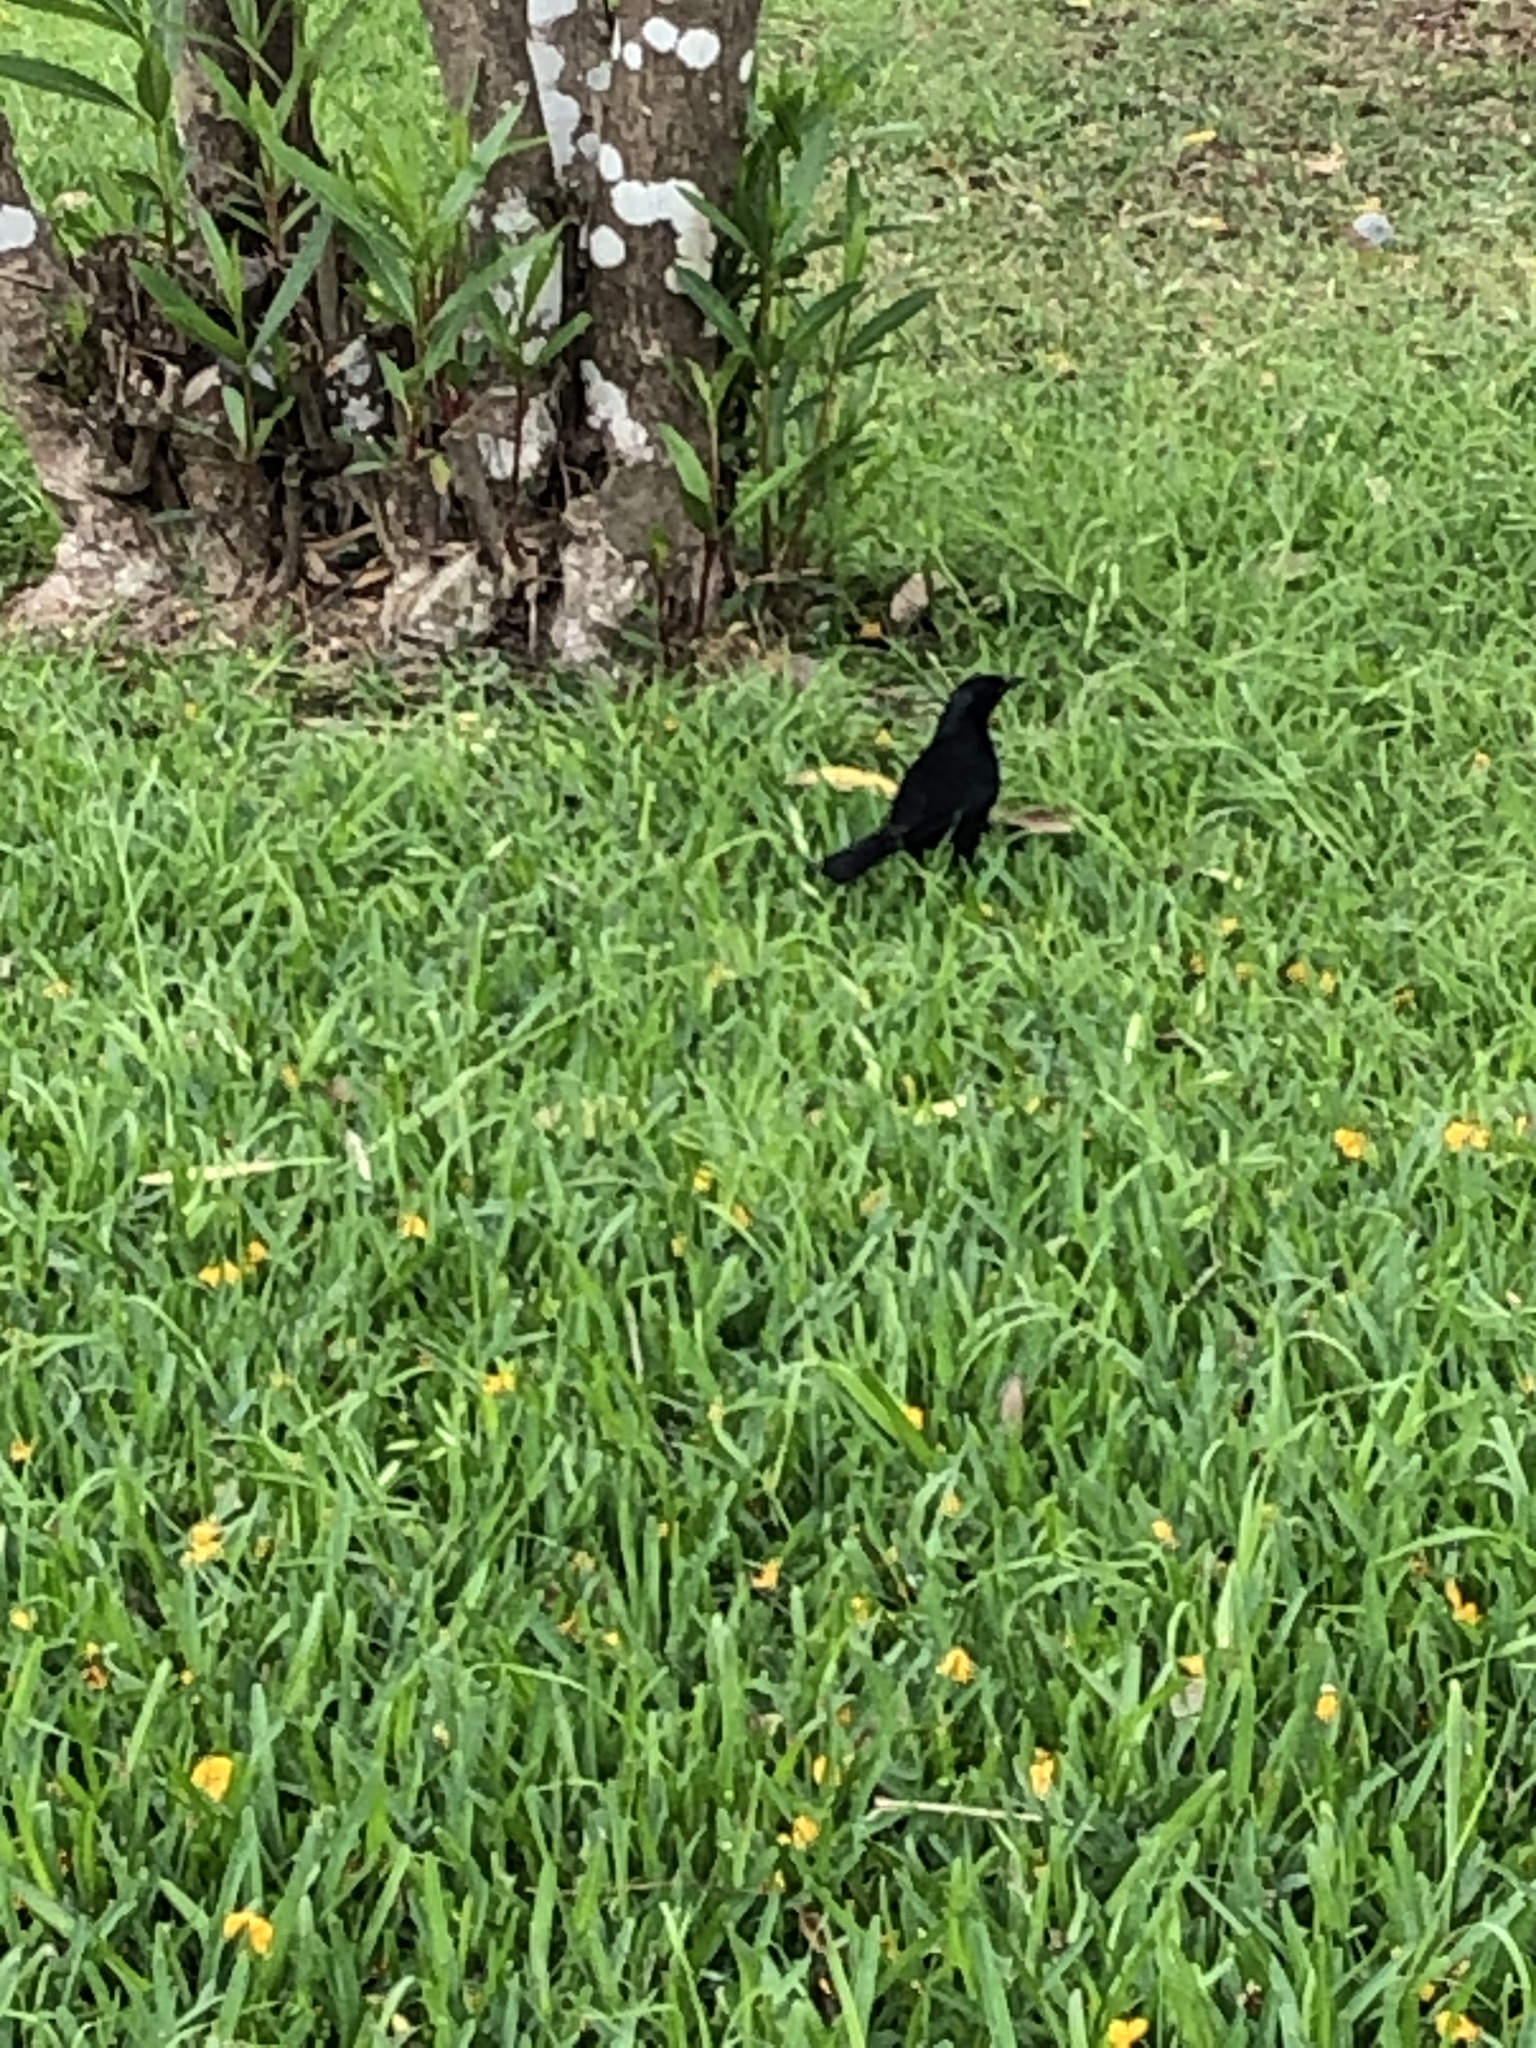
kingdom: Animalia
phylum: Chordata
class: Aves
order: Passeriformes
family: Icteridae
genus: Dives
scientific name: Dives warczewiczi
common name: Scrub blackbird
